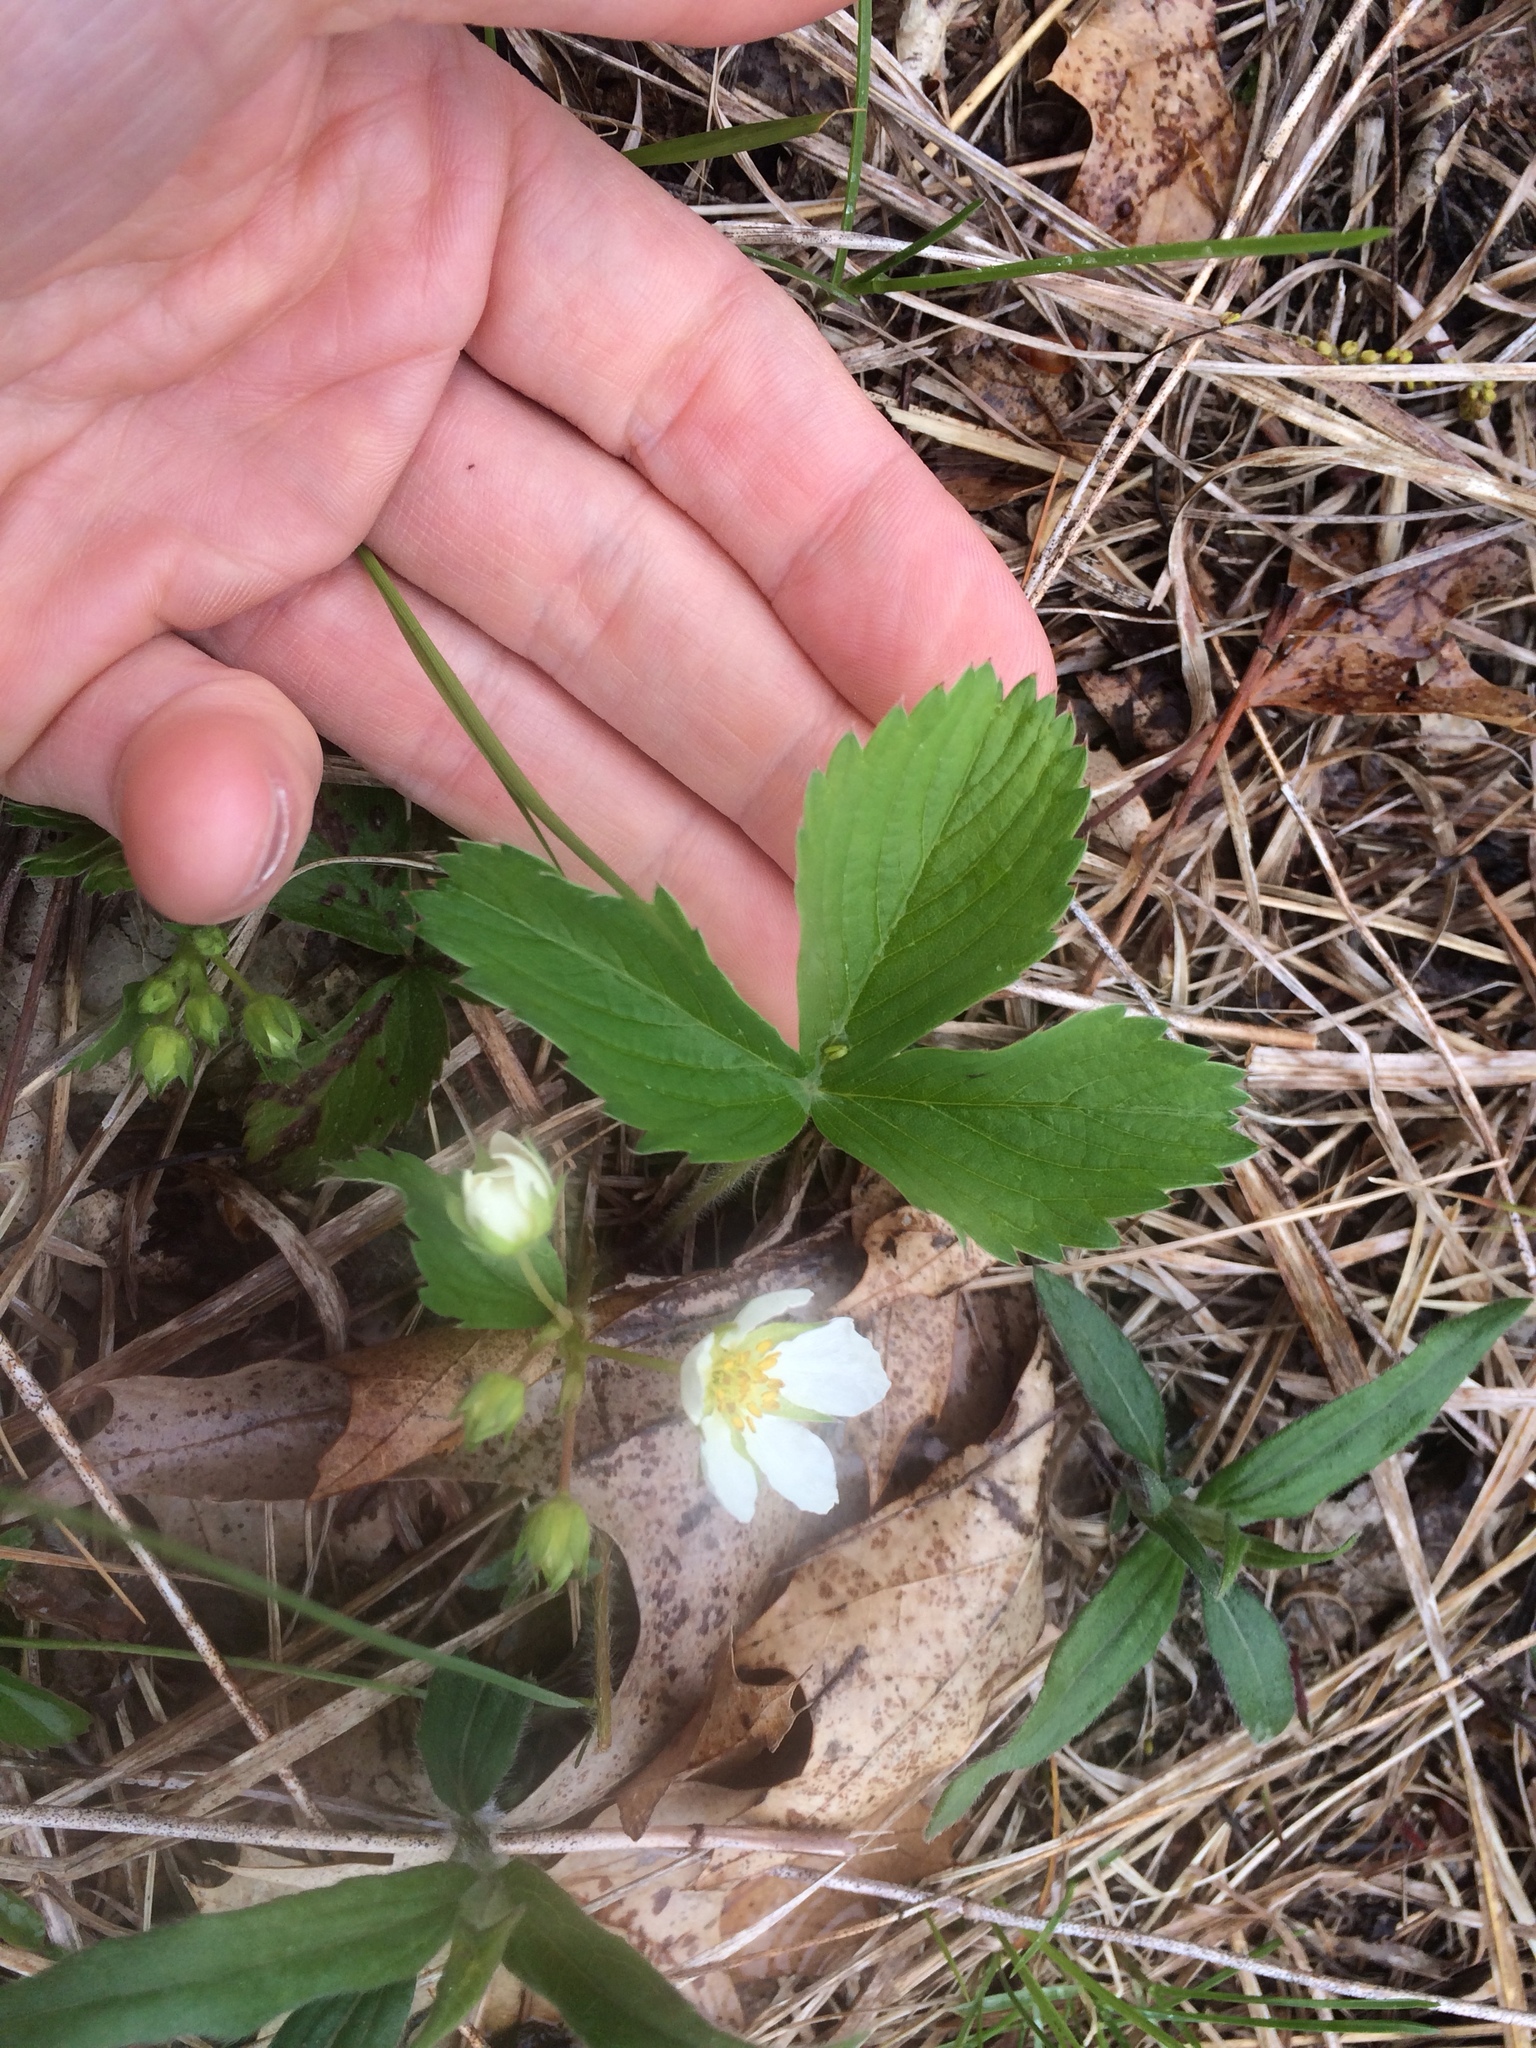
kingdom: Plantae
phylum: Tracheophyta
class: Magnoliopsida
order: Rosales
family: Rosaceae
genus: Fragaria
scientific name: Fragaria virginiana
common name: Thickleaved wild strawberry
